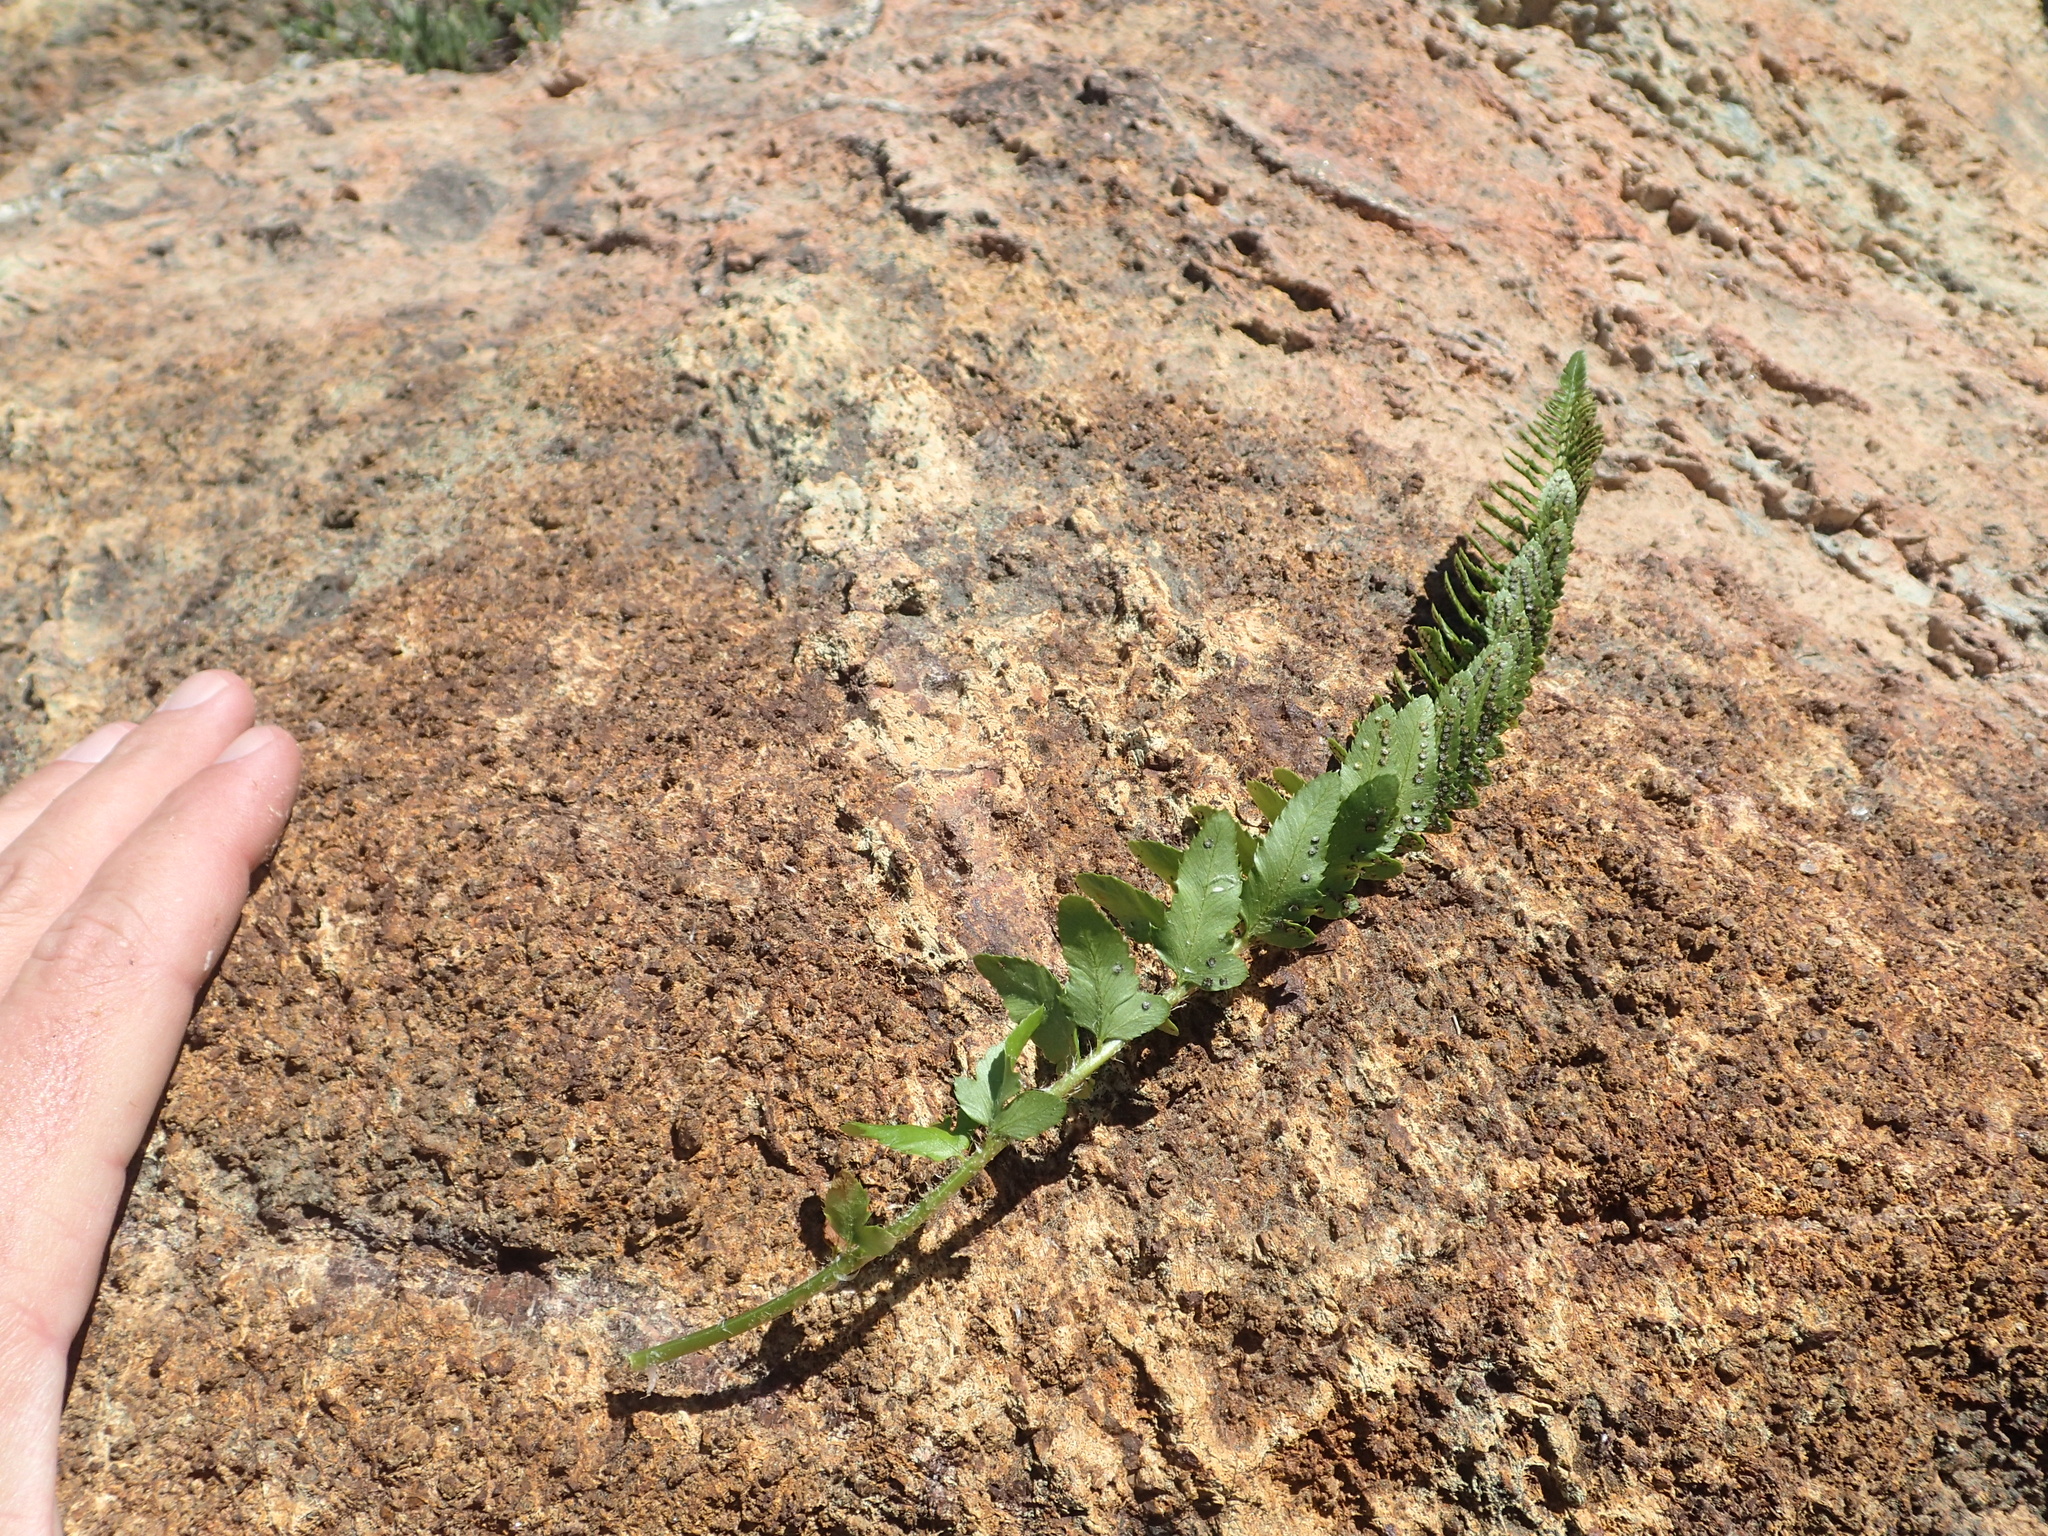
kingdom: Plantae
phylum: Tracheophyta
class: Polypodiopsida
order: Polypodiales
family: Dryopteridaceae
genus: Polystichum
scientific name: Polystichum scopulinum
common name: Eaton's shield fern
